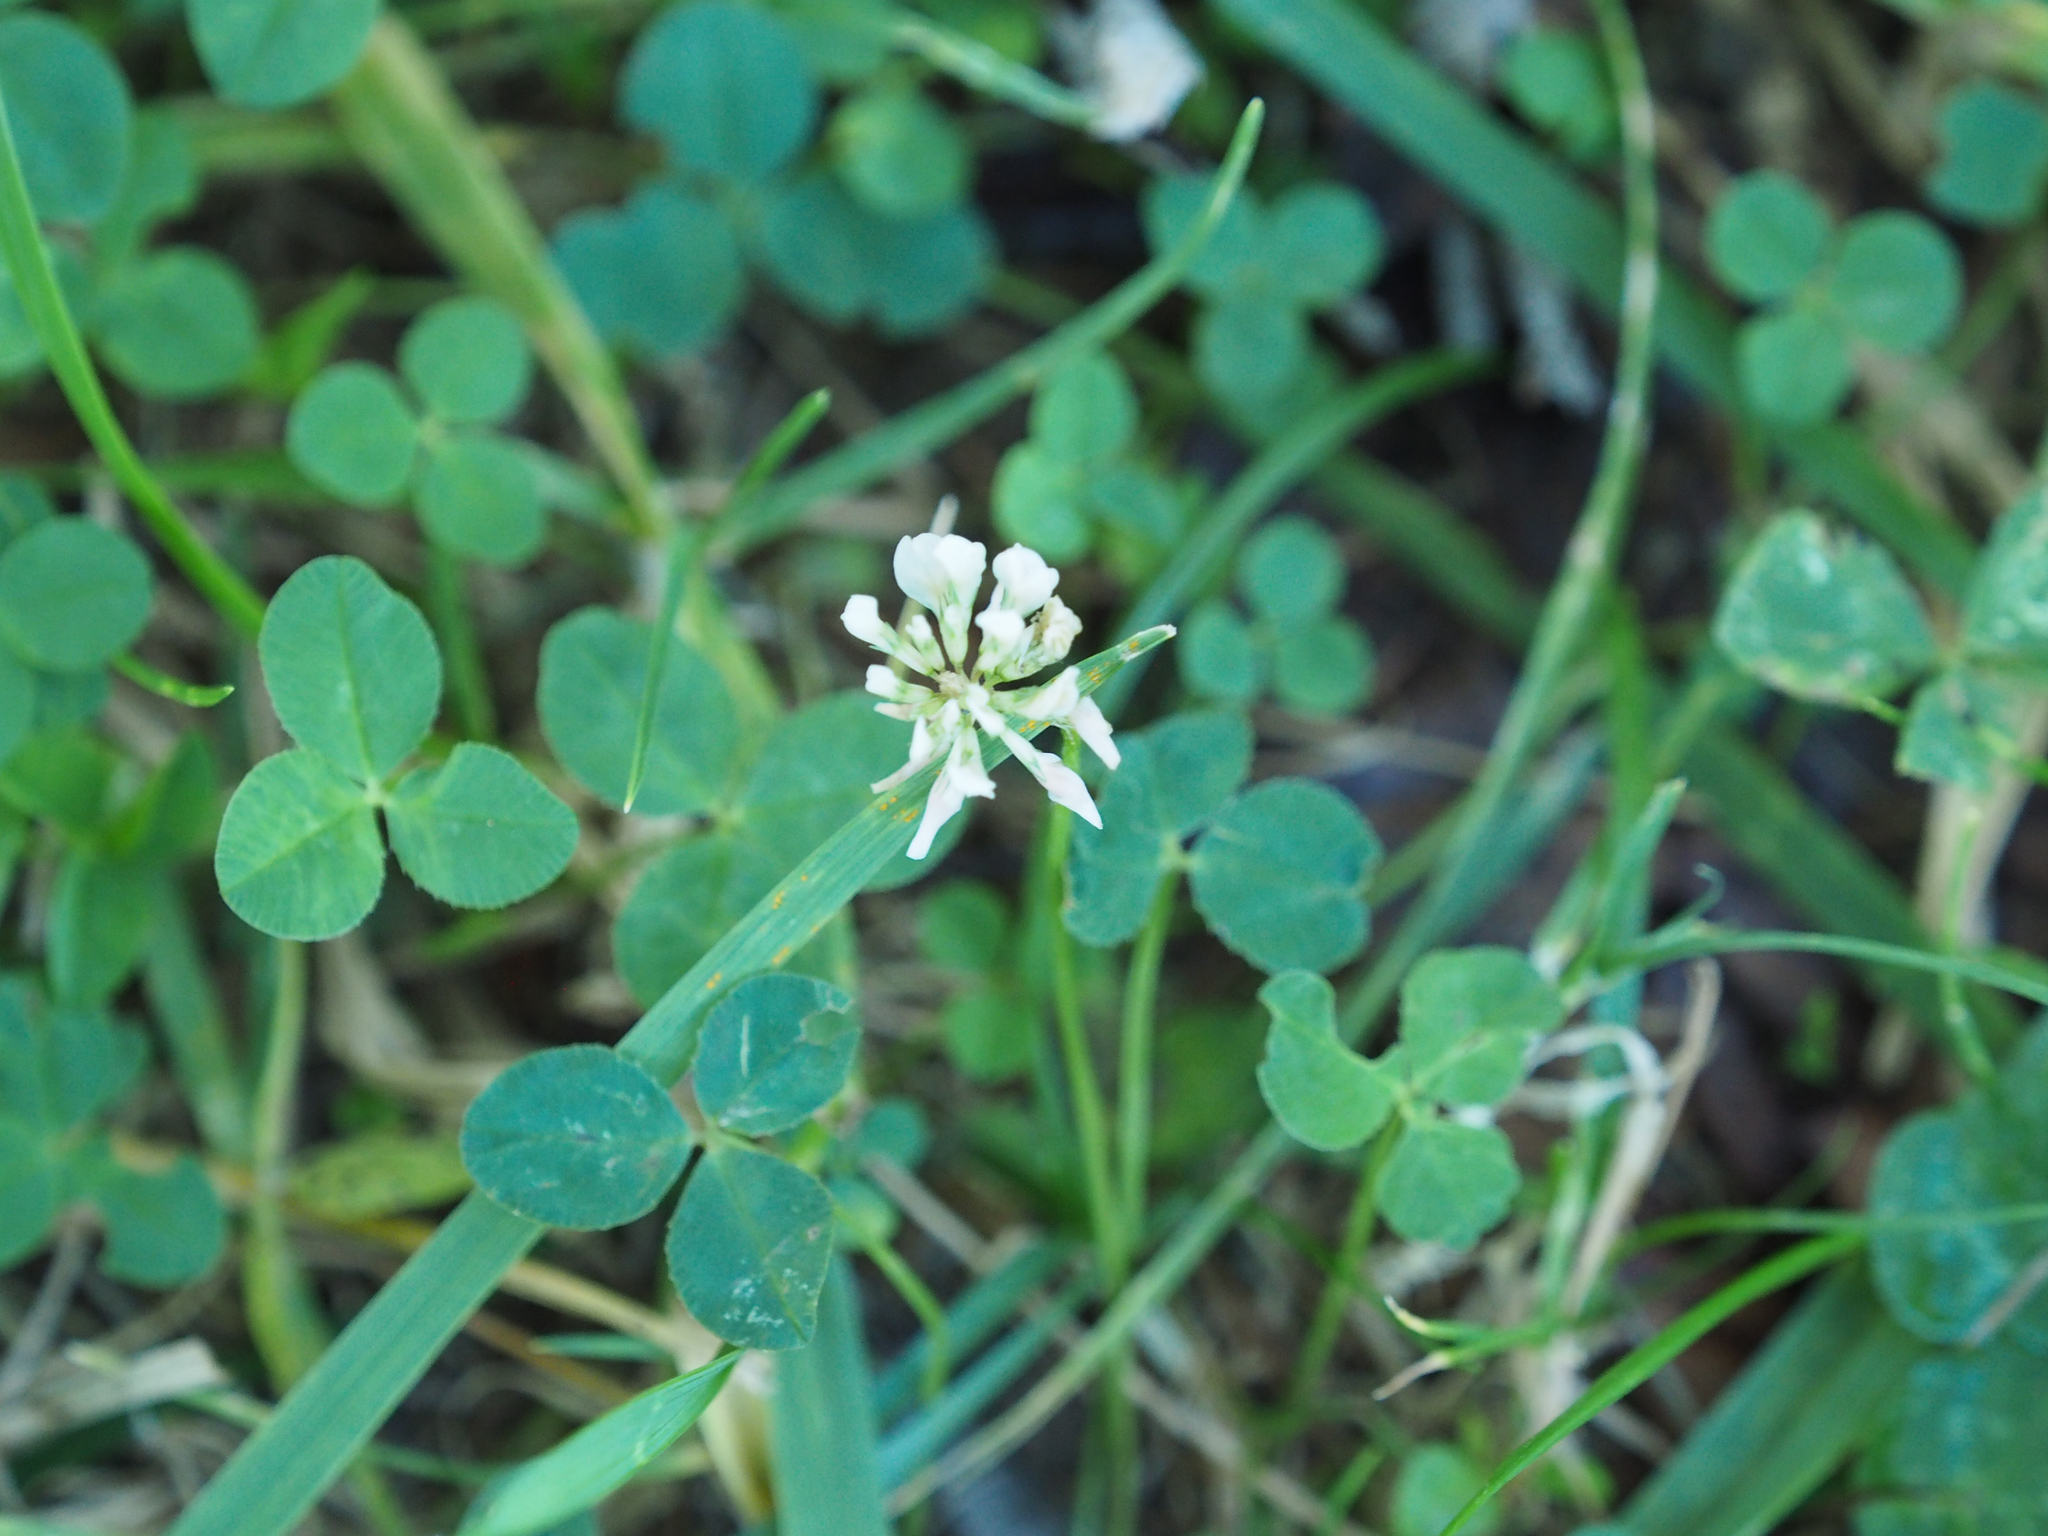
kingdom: Plantae
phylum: Tracheophyta
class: Magnoliopsida
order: Fabales
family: Fabaceae
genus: Trifolium
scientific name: Trifolium repens
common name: White clover
